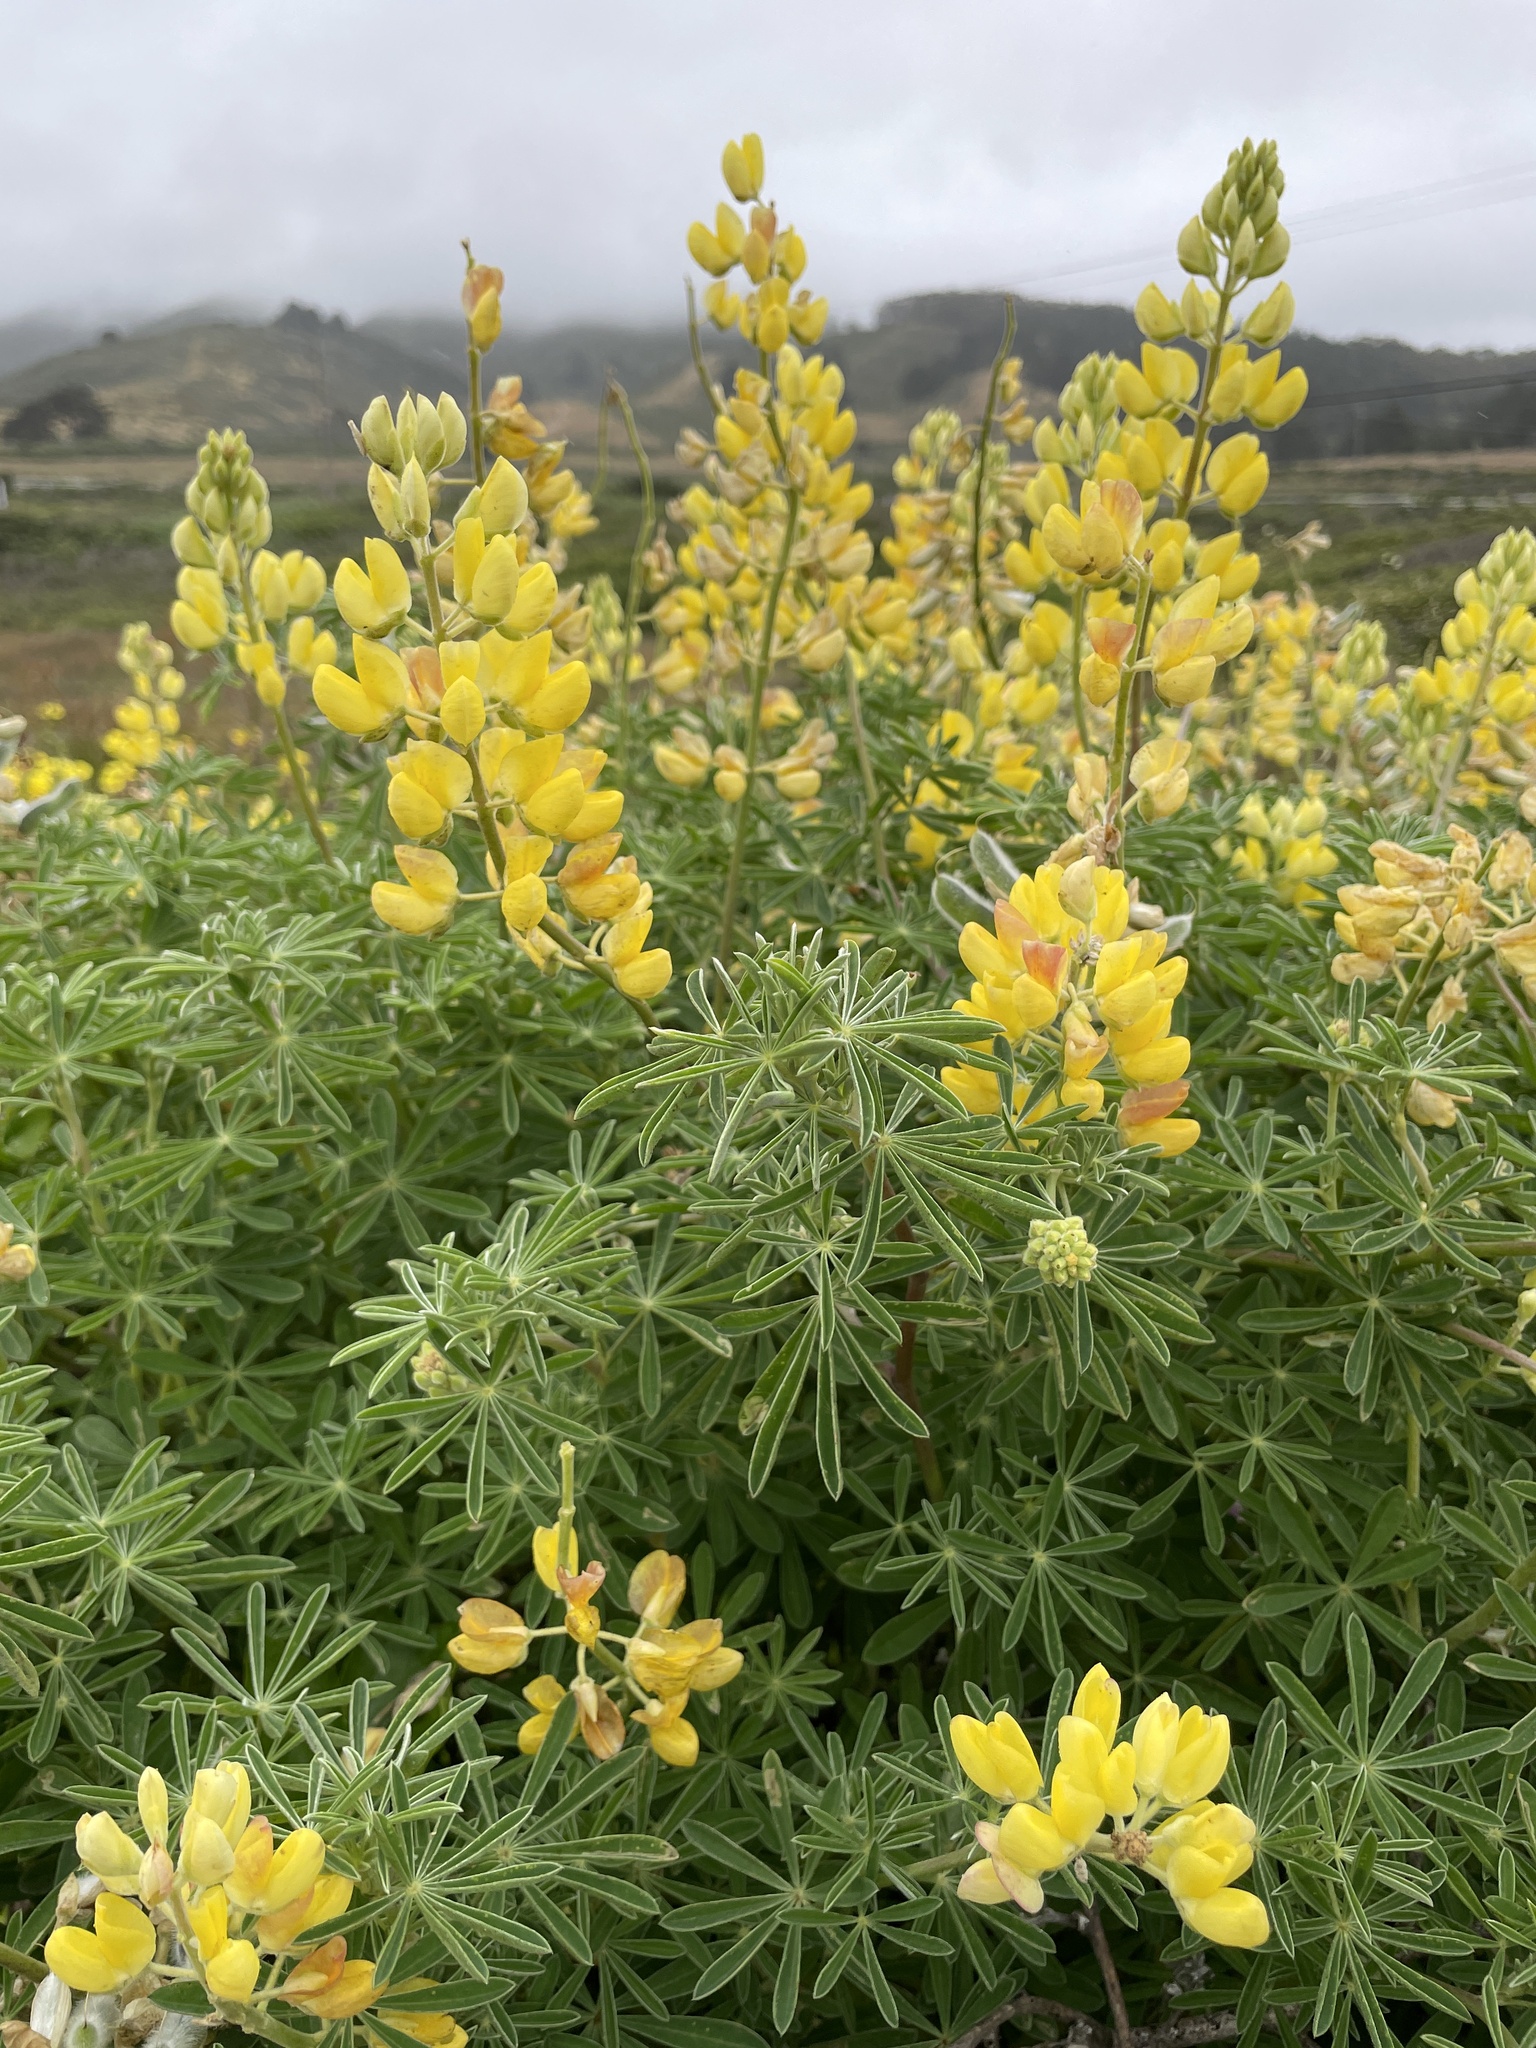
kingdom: Plantae
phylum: Tracheophyta
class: Magnoliopsida
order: Fabales
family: Fabaceae
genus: Lupinus
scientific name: Lupinus arboreus
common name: Yellow bush lupine
